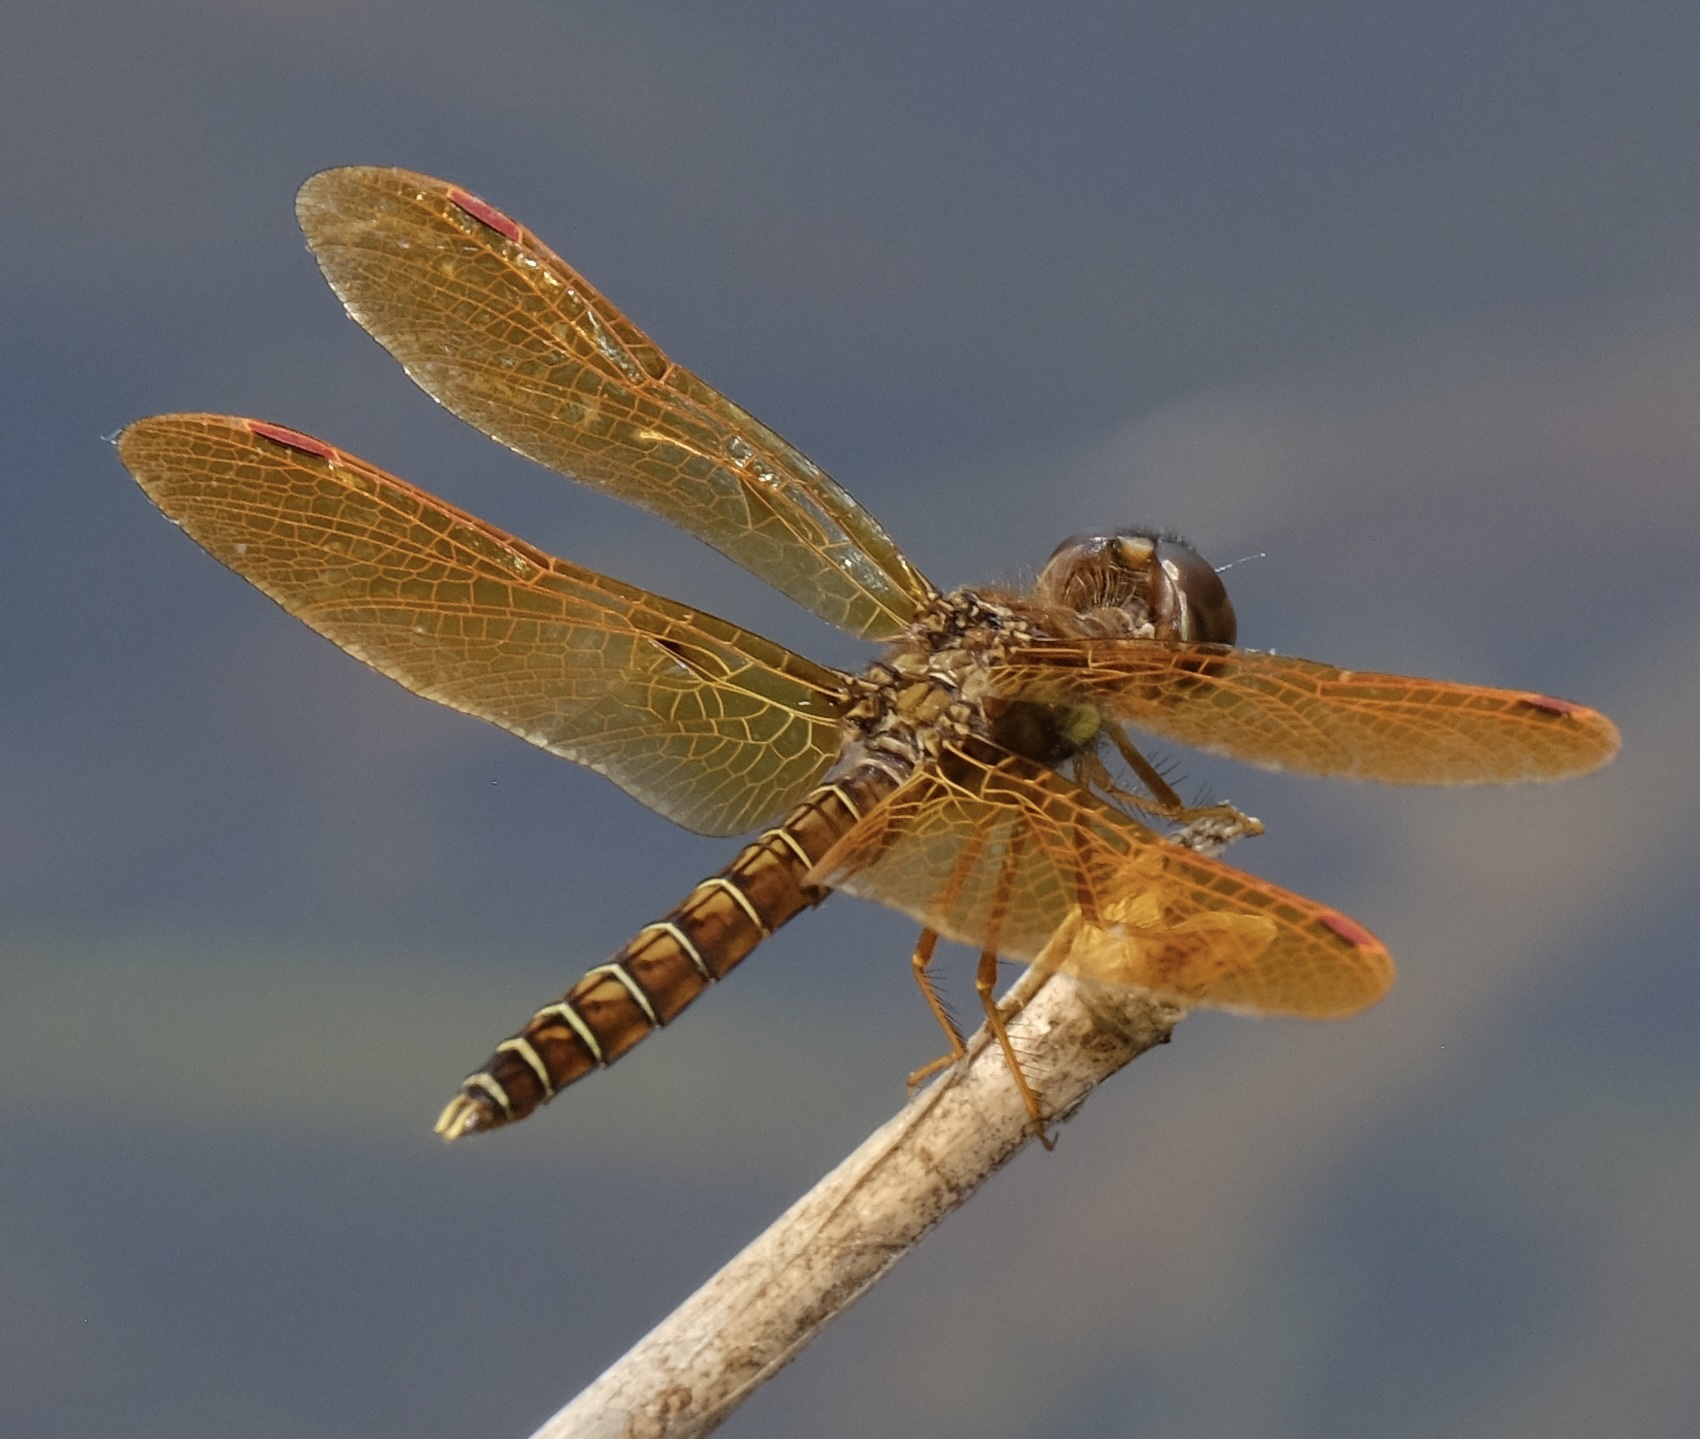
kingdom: Animalia
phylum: Arthropoda
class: Insecta
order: Odonata
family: Libellulidae
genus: Perithemis
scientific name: Perithemis tenera
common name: Eastern amberwing
